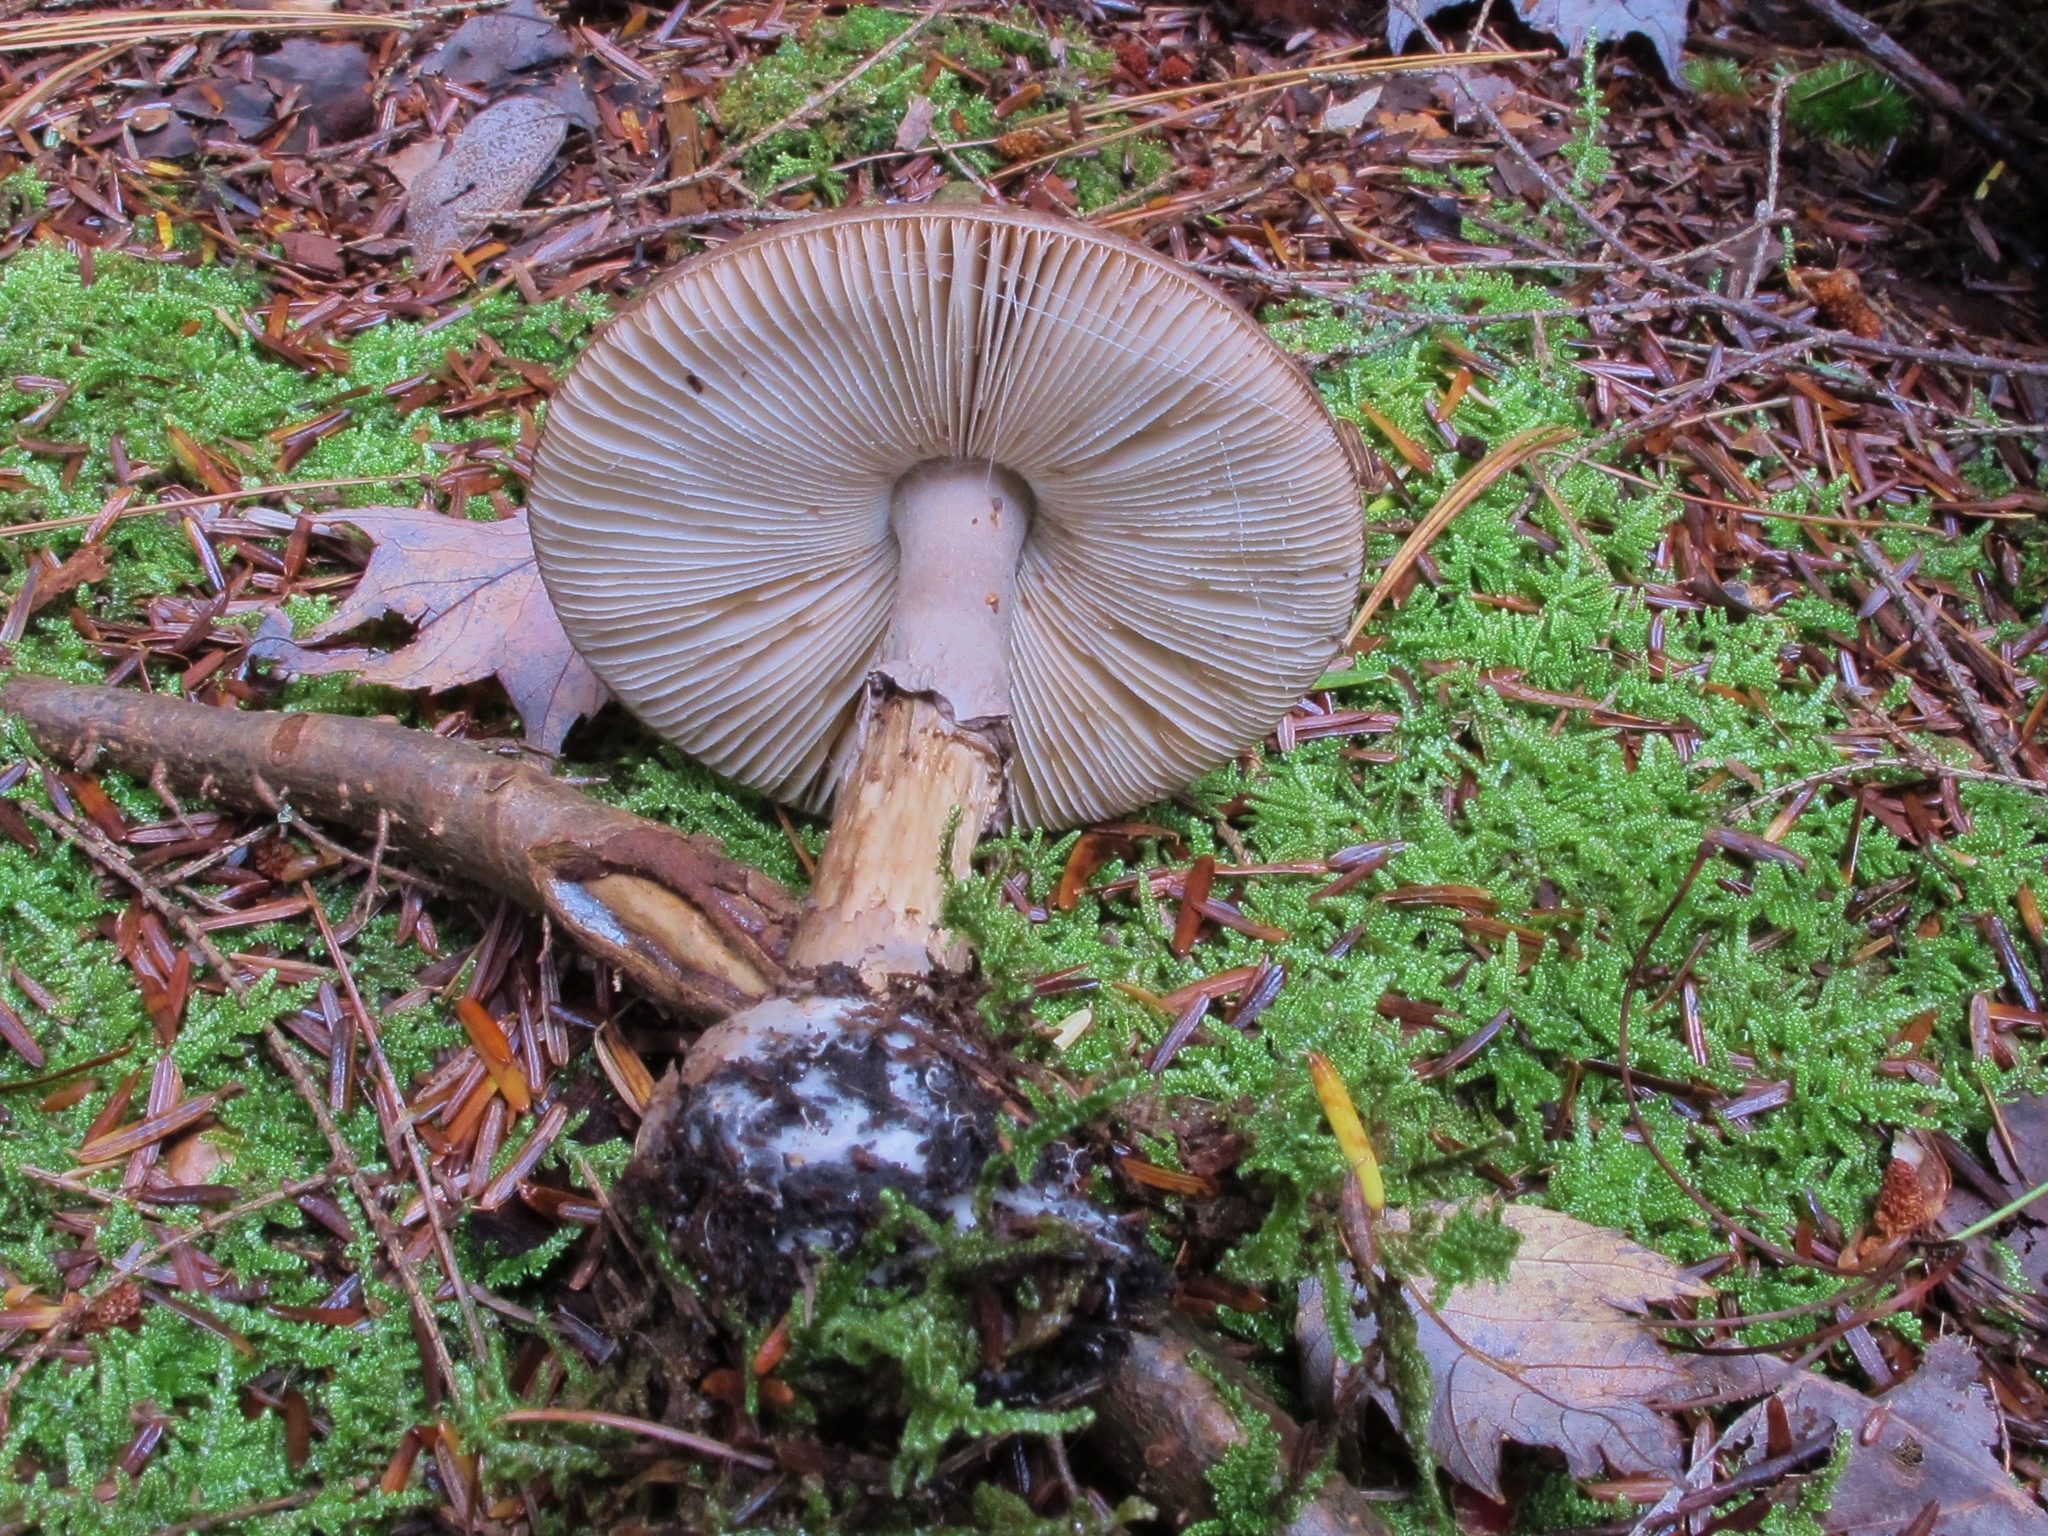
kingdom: Fungi
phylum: Basidiomycota
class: Agaricomycetes
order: Agaricales
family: Amanitaceae
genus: Amanita
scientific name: Amanita porphyria
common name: Grey veiled amanita
